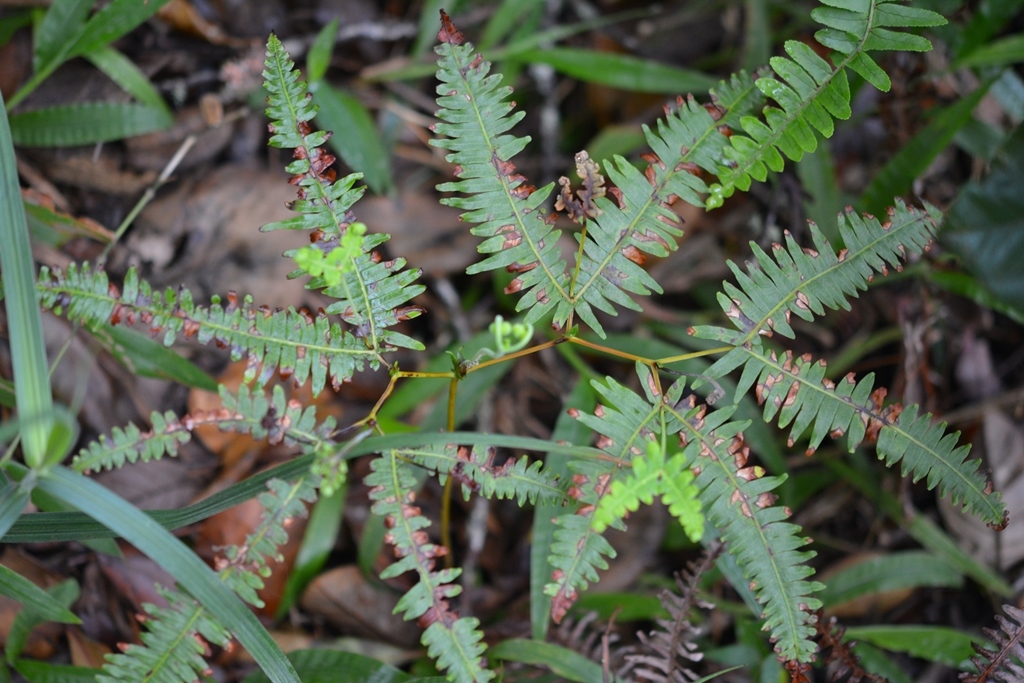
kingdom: Plantae
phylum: Tracheophyta
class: Polypodiopsida
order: Gleicheniales
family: Gleicheniaceae
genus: Gleichenella
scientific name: Gleichenella pectinata
